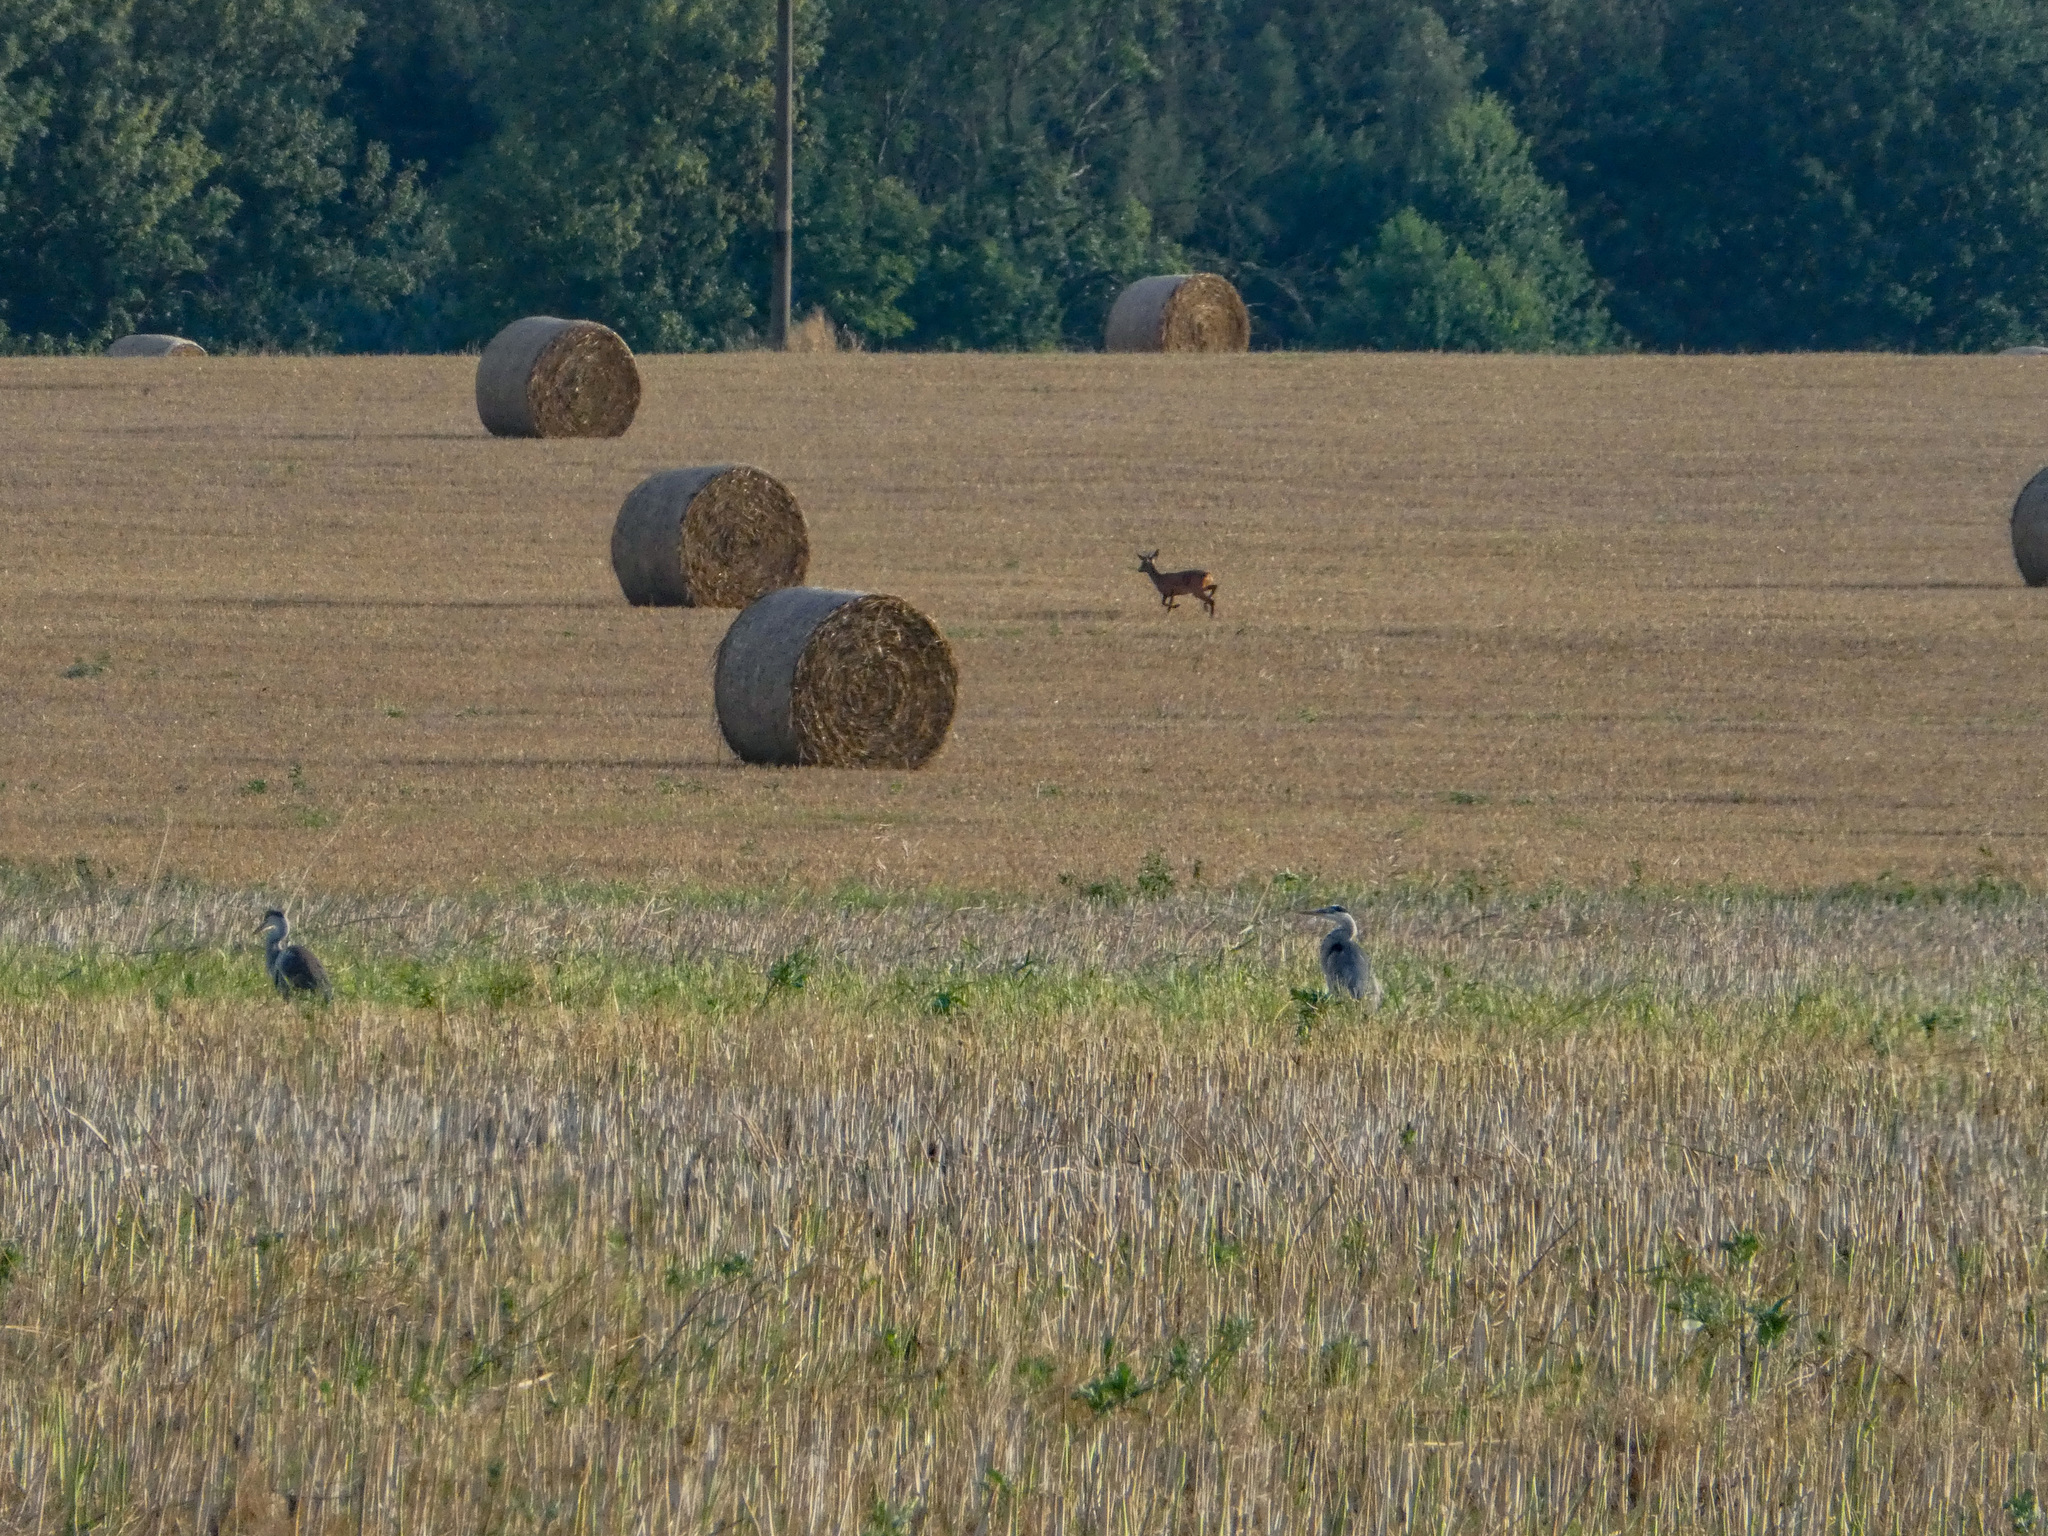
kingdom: Animalia
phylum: Chordata
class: Mammalia
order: Artiodactyla
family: Cervidae
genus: Capreolus
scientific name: Capreolus capreolus
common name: Western roe deer
